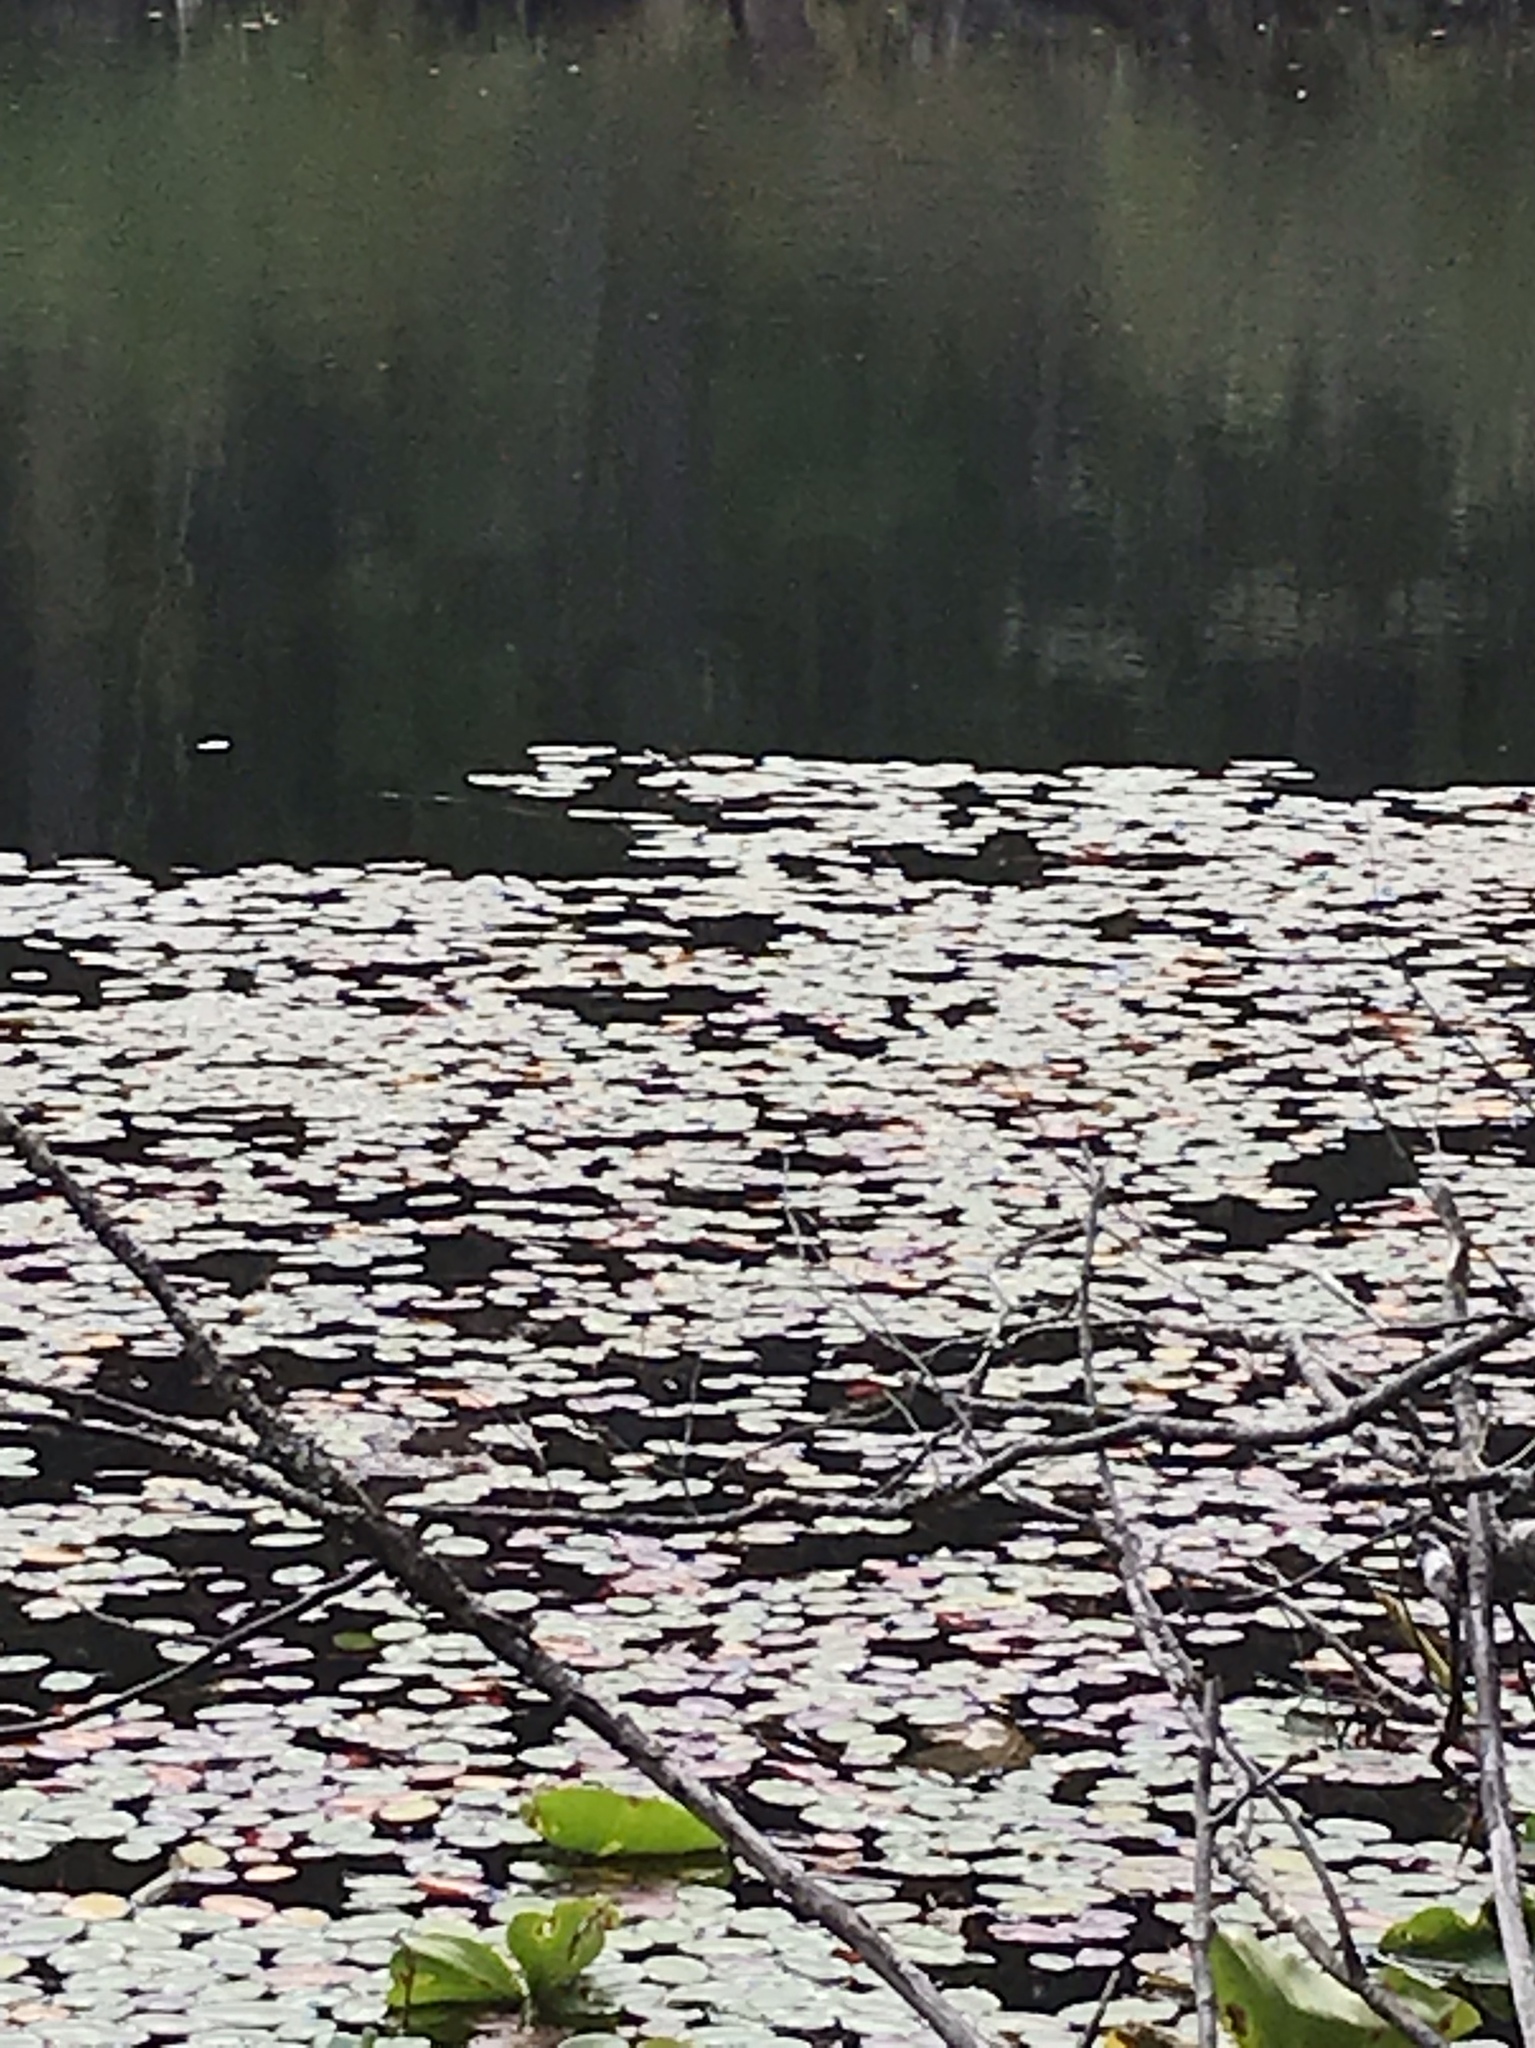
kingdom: Plantae
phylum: Tracheophyta
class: Magnoliopsida
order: Nymphaeales
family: Cabombaceae
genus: Brasenia
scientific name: Brasenia schreberi
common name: Water-shield
